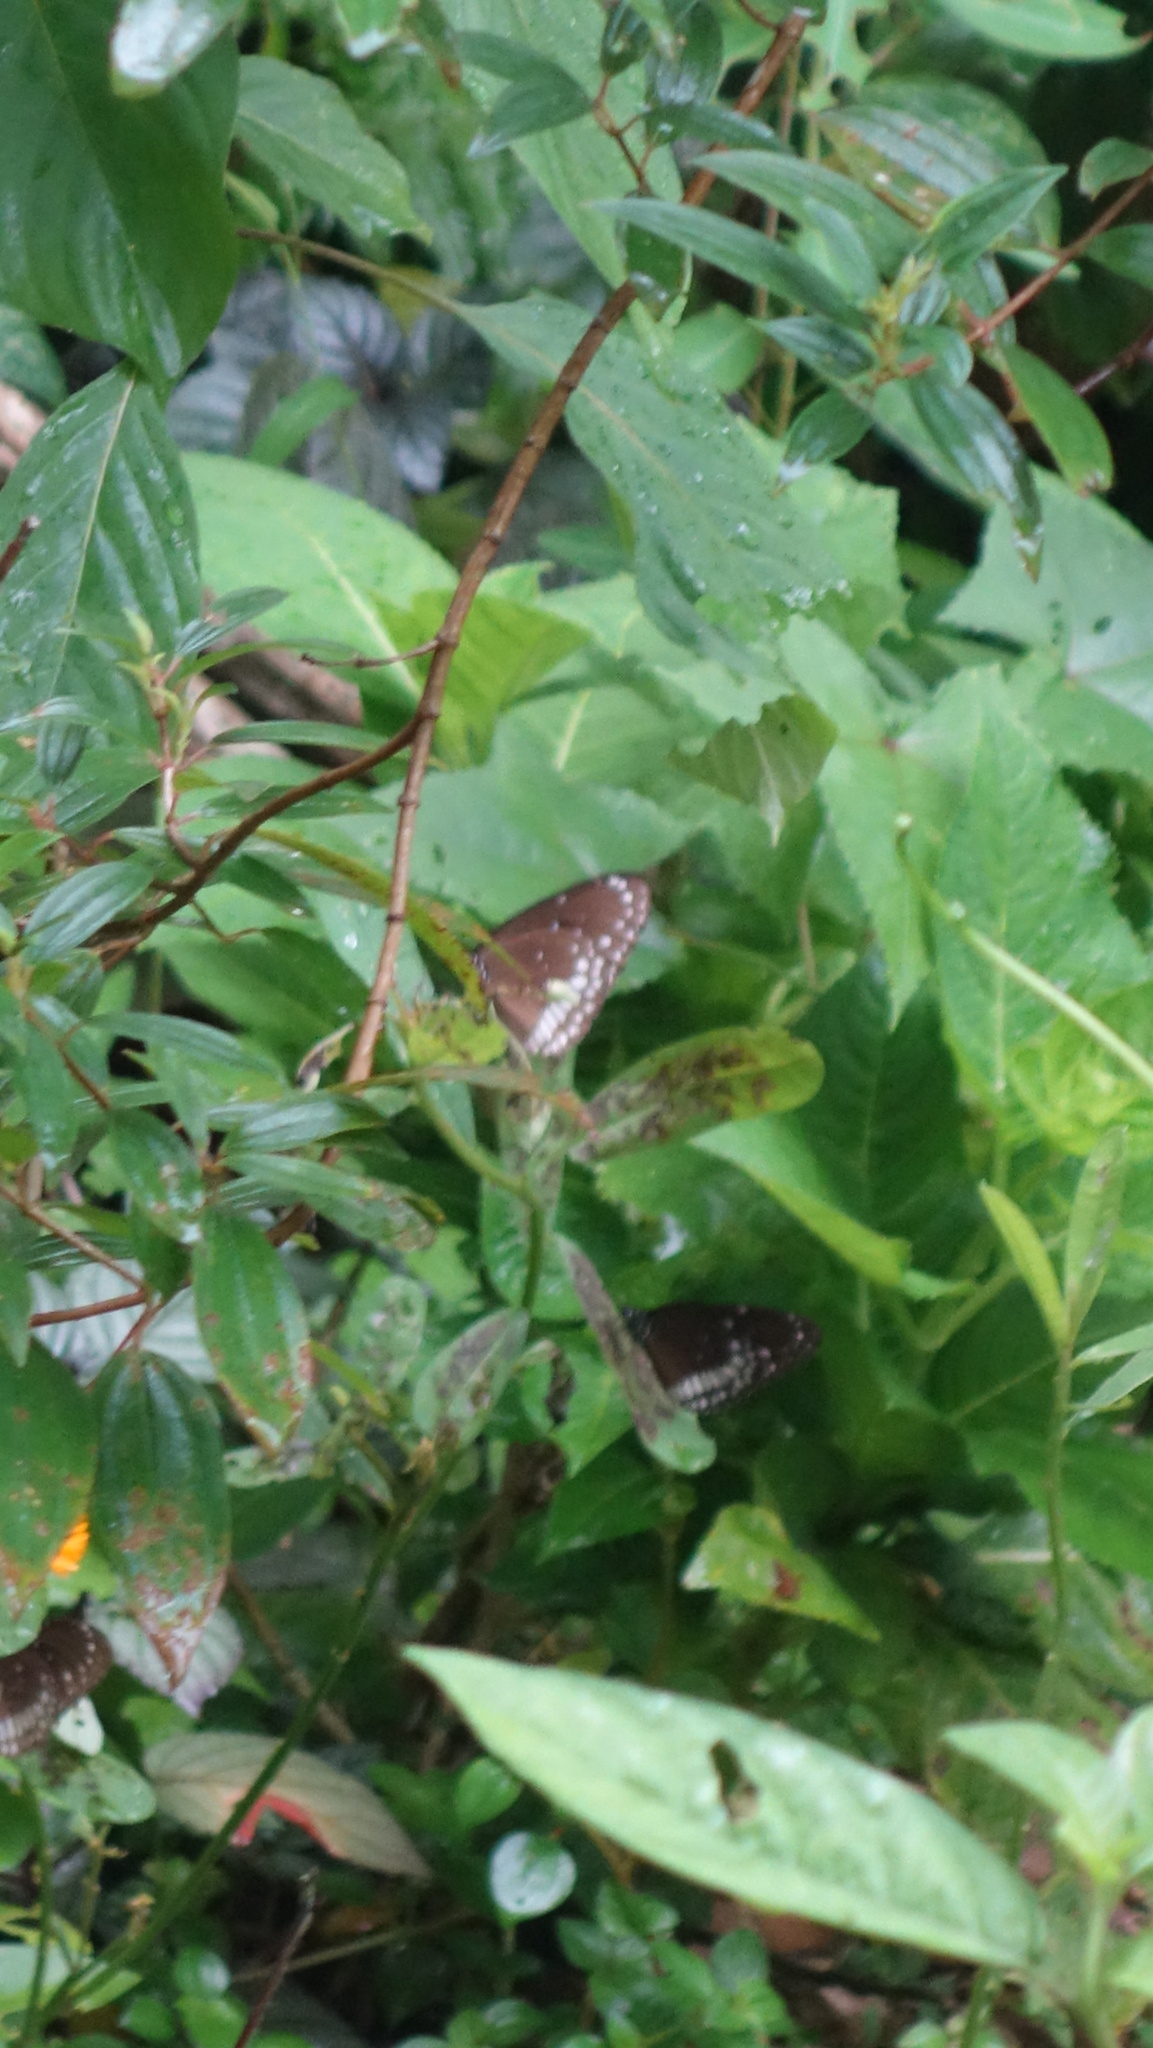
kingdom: Animalia
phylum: Arthropoda
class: Insecta
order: Lepidoptera
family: Nymphalidae
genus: Euploea
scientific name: Euploea core
